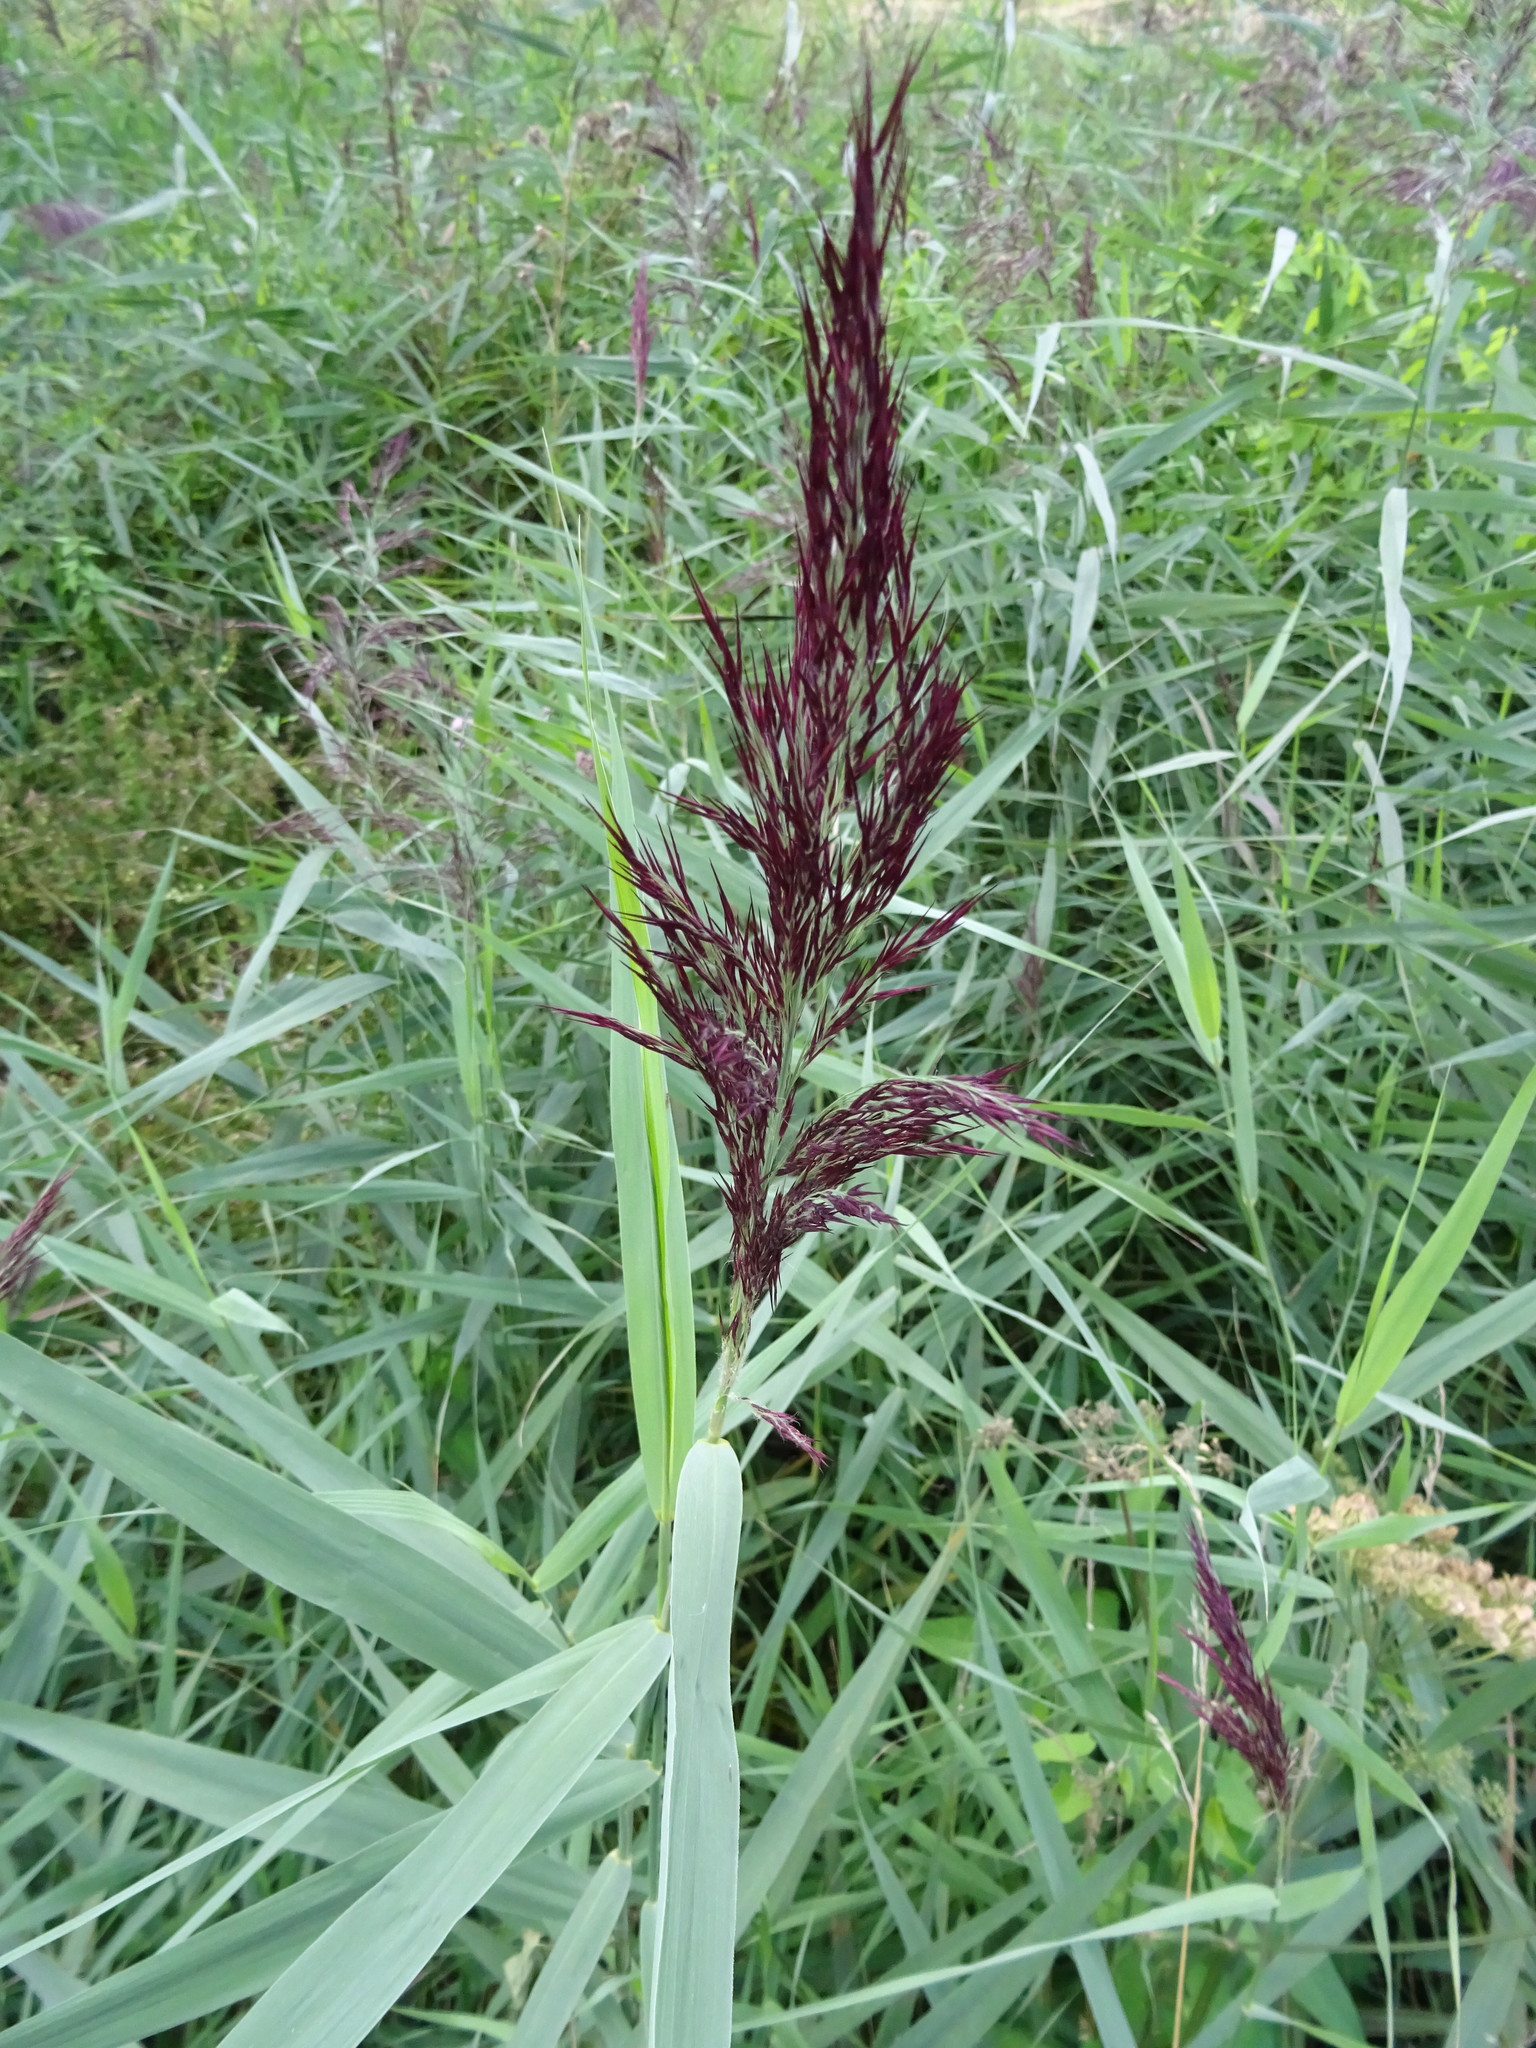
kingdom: Plantae
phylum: Tracheophyta
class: Liliopsida
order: Poales
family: Poaceae
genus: Phragmites
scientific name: Phragmites australis
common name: Common reed
